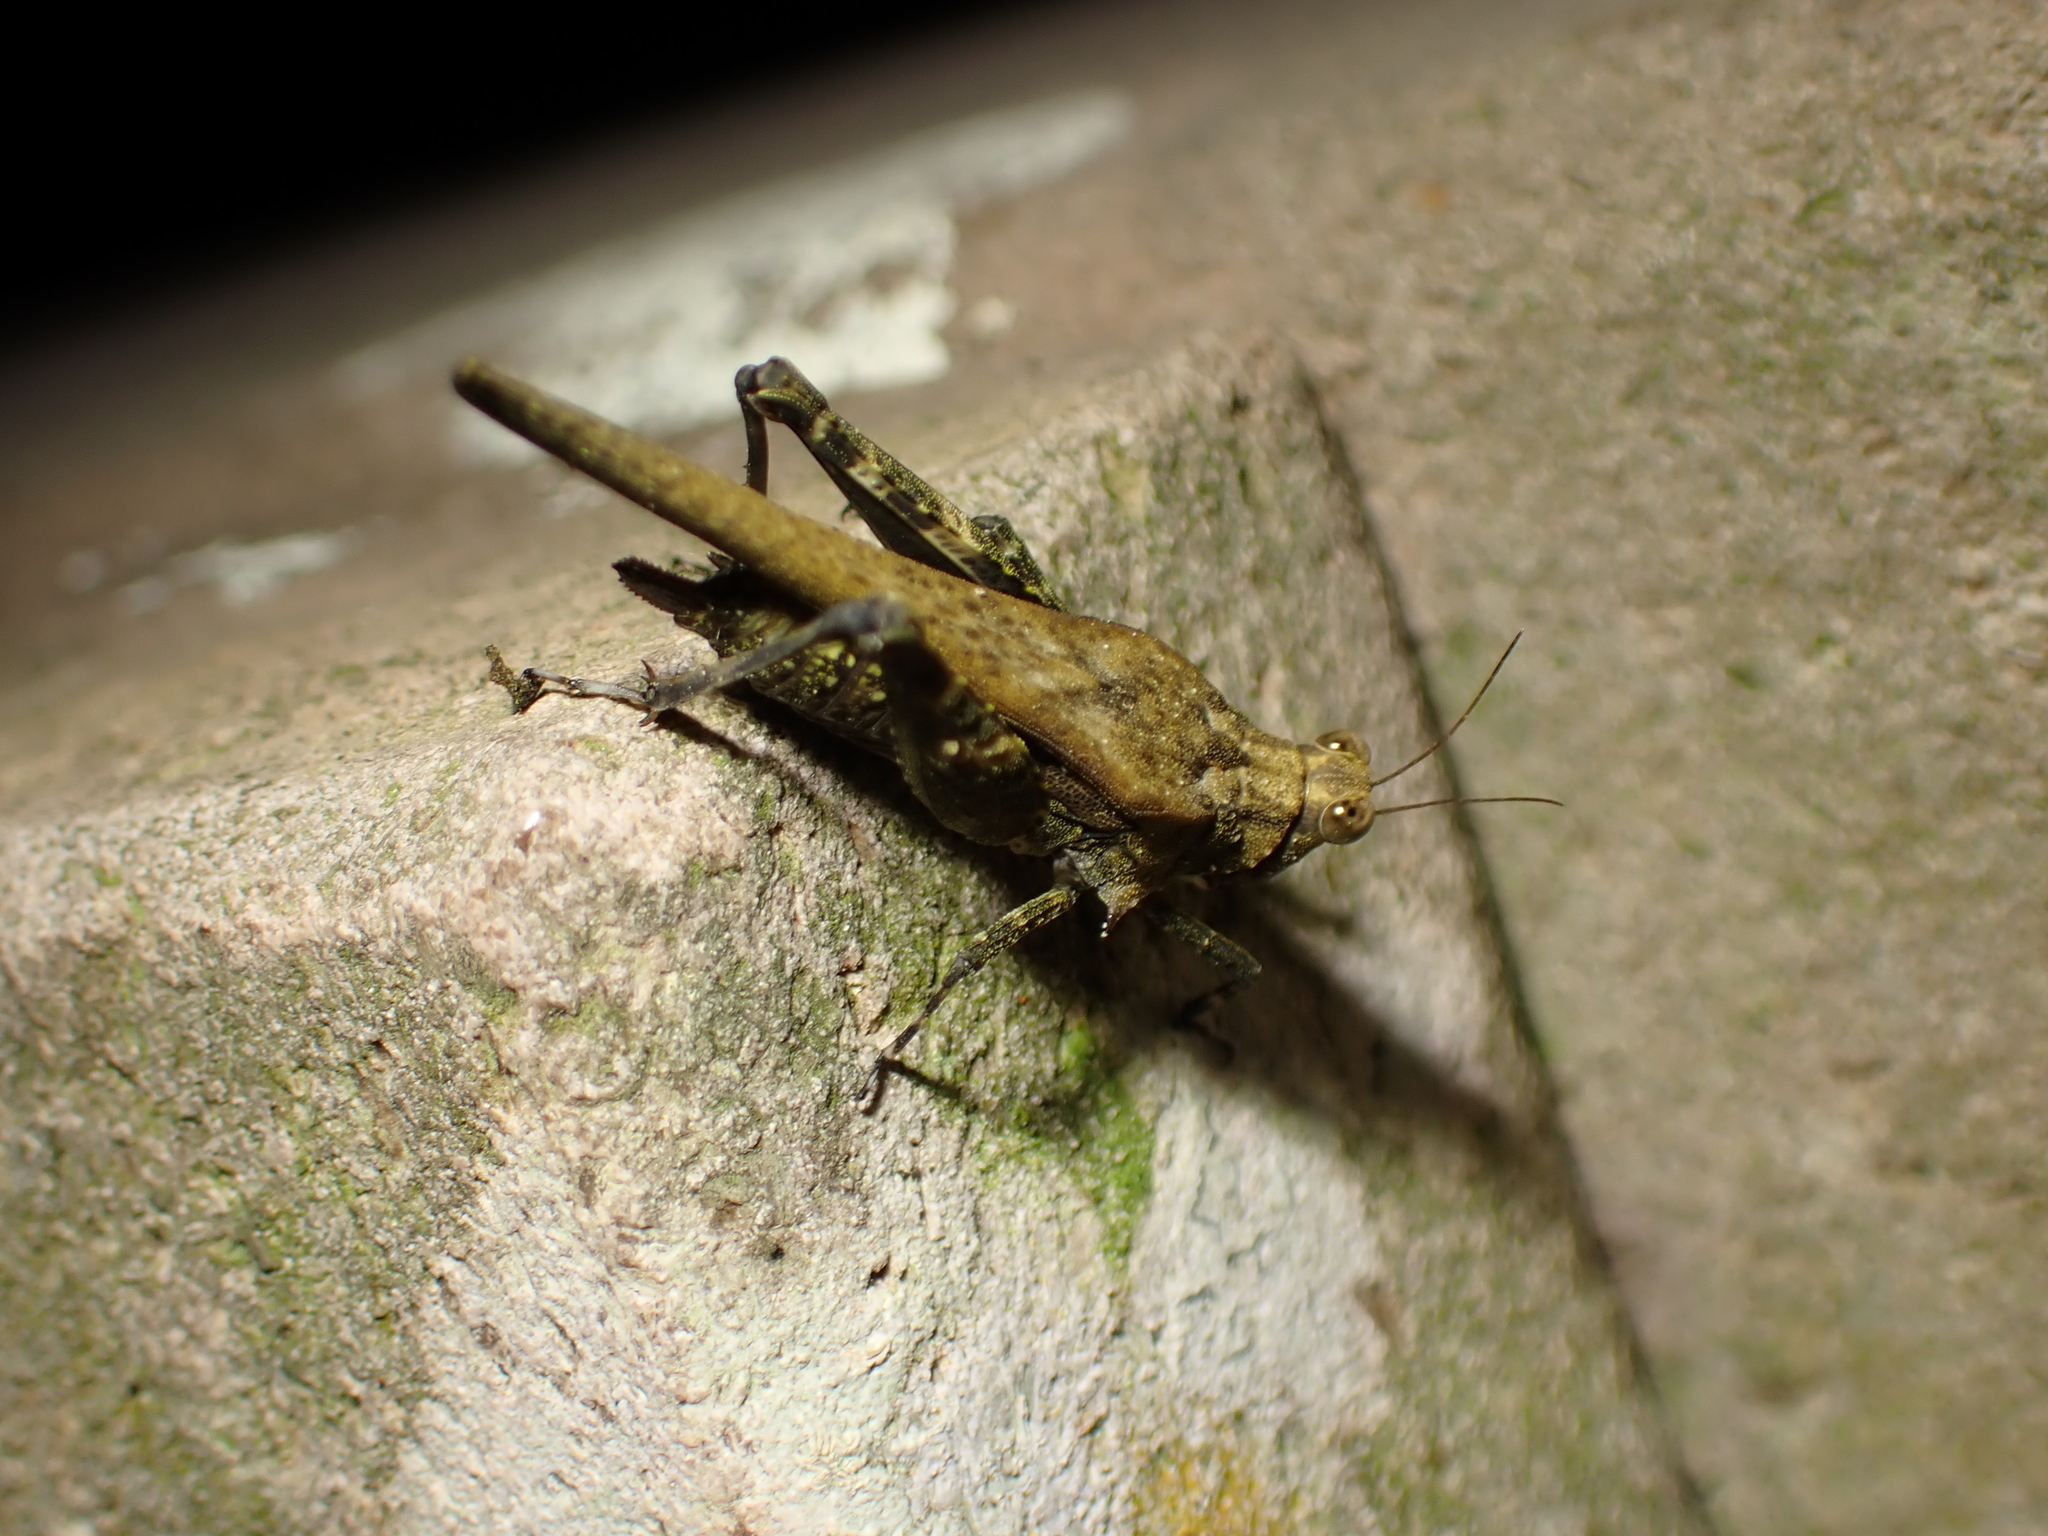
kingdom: Animalia
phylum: Arthropoda
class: Insecta
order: Orthoptera
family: Tetrigidae
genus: Criotettix
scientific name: Criotettix bispinosus
